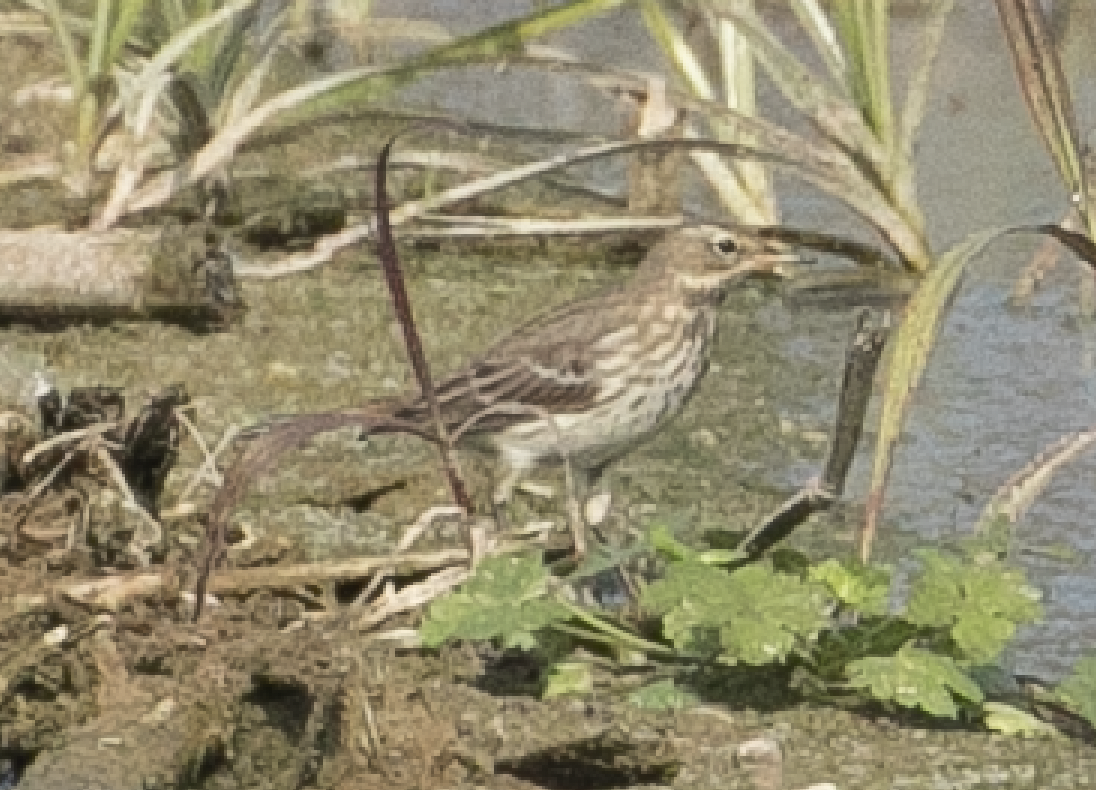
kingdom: Animalia
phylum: Chordata
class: Aves
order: Passeriformes
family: Motacillidae
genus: Anthus
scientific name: Anthus spinoletta
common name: Water pipit
